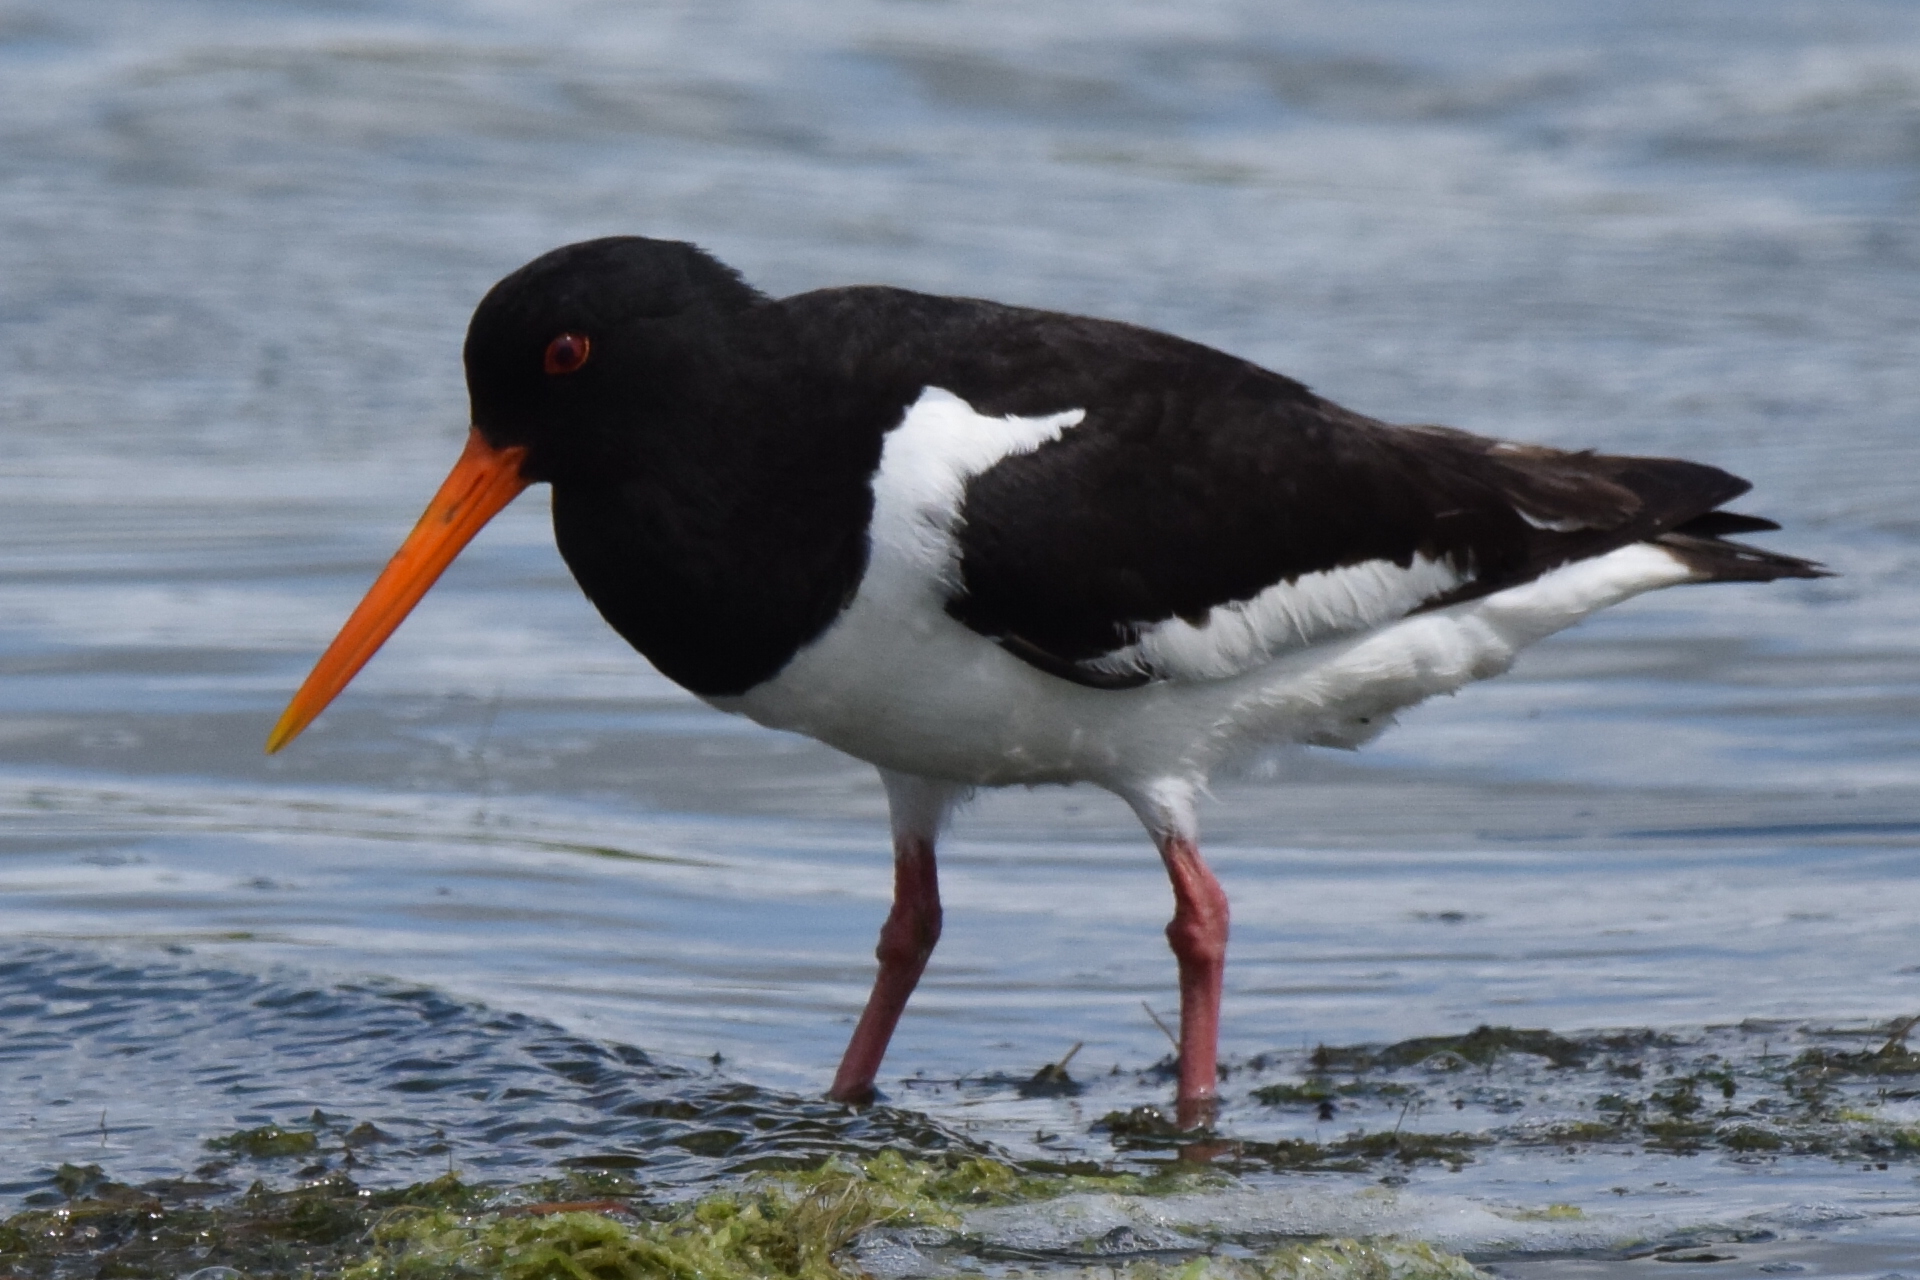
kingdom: Animalia
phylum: Chordata
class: Aves
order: Charadriiformes
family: Haematopodidae
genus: Haematopus
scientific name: Haematopus ostralegus
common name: Eurasian oystercatcher
